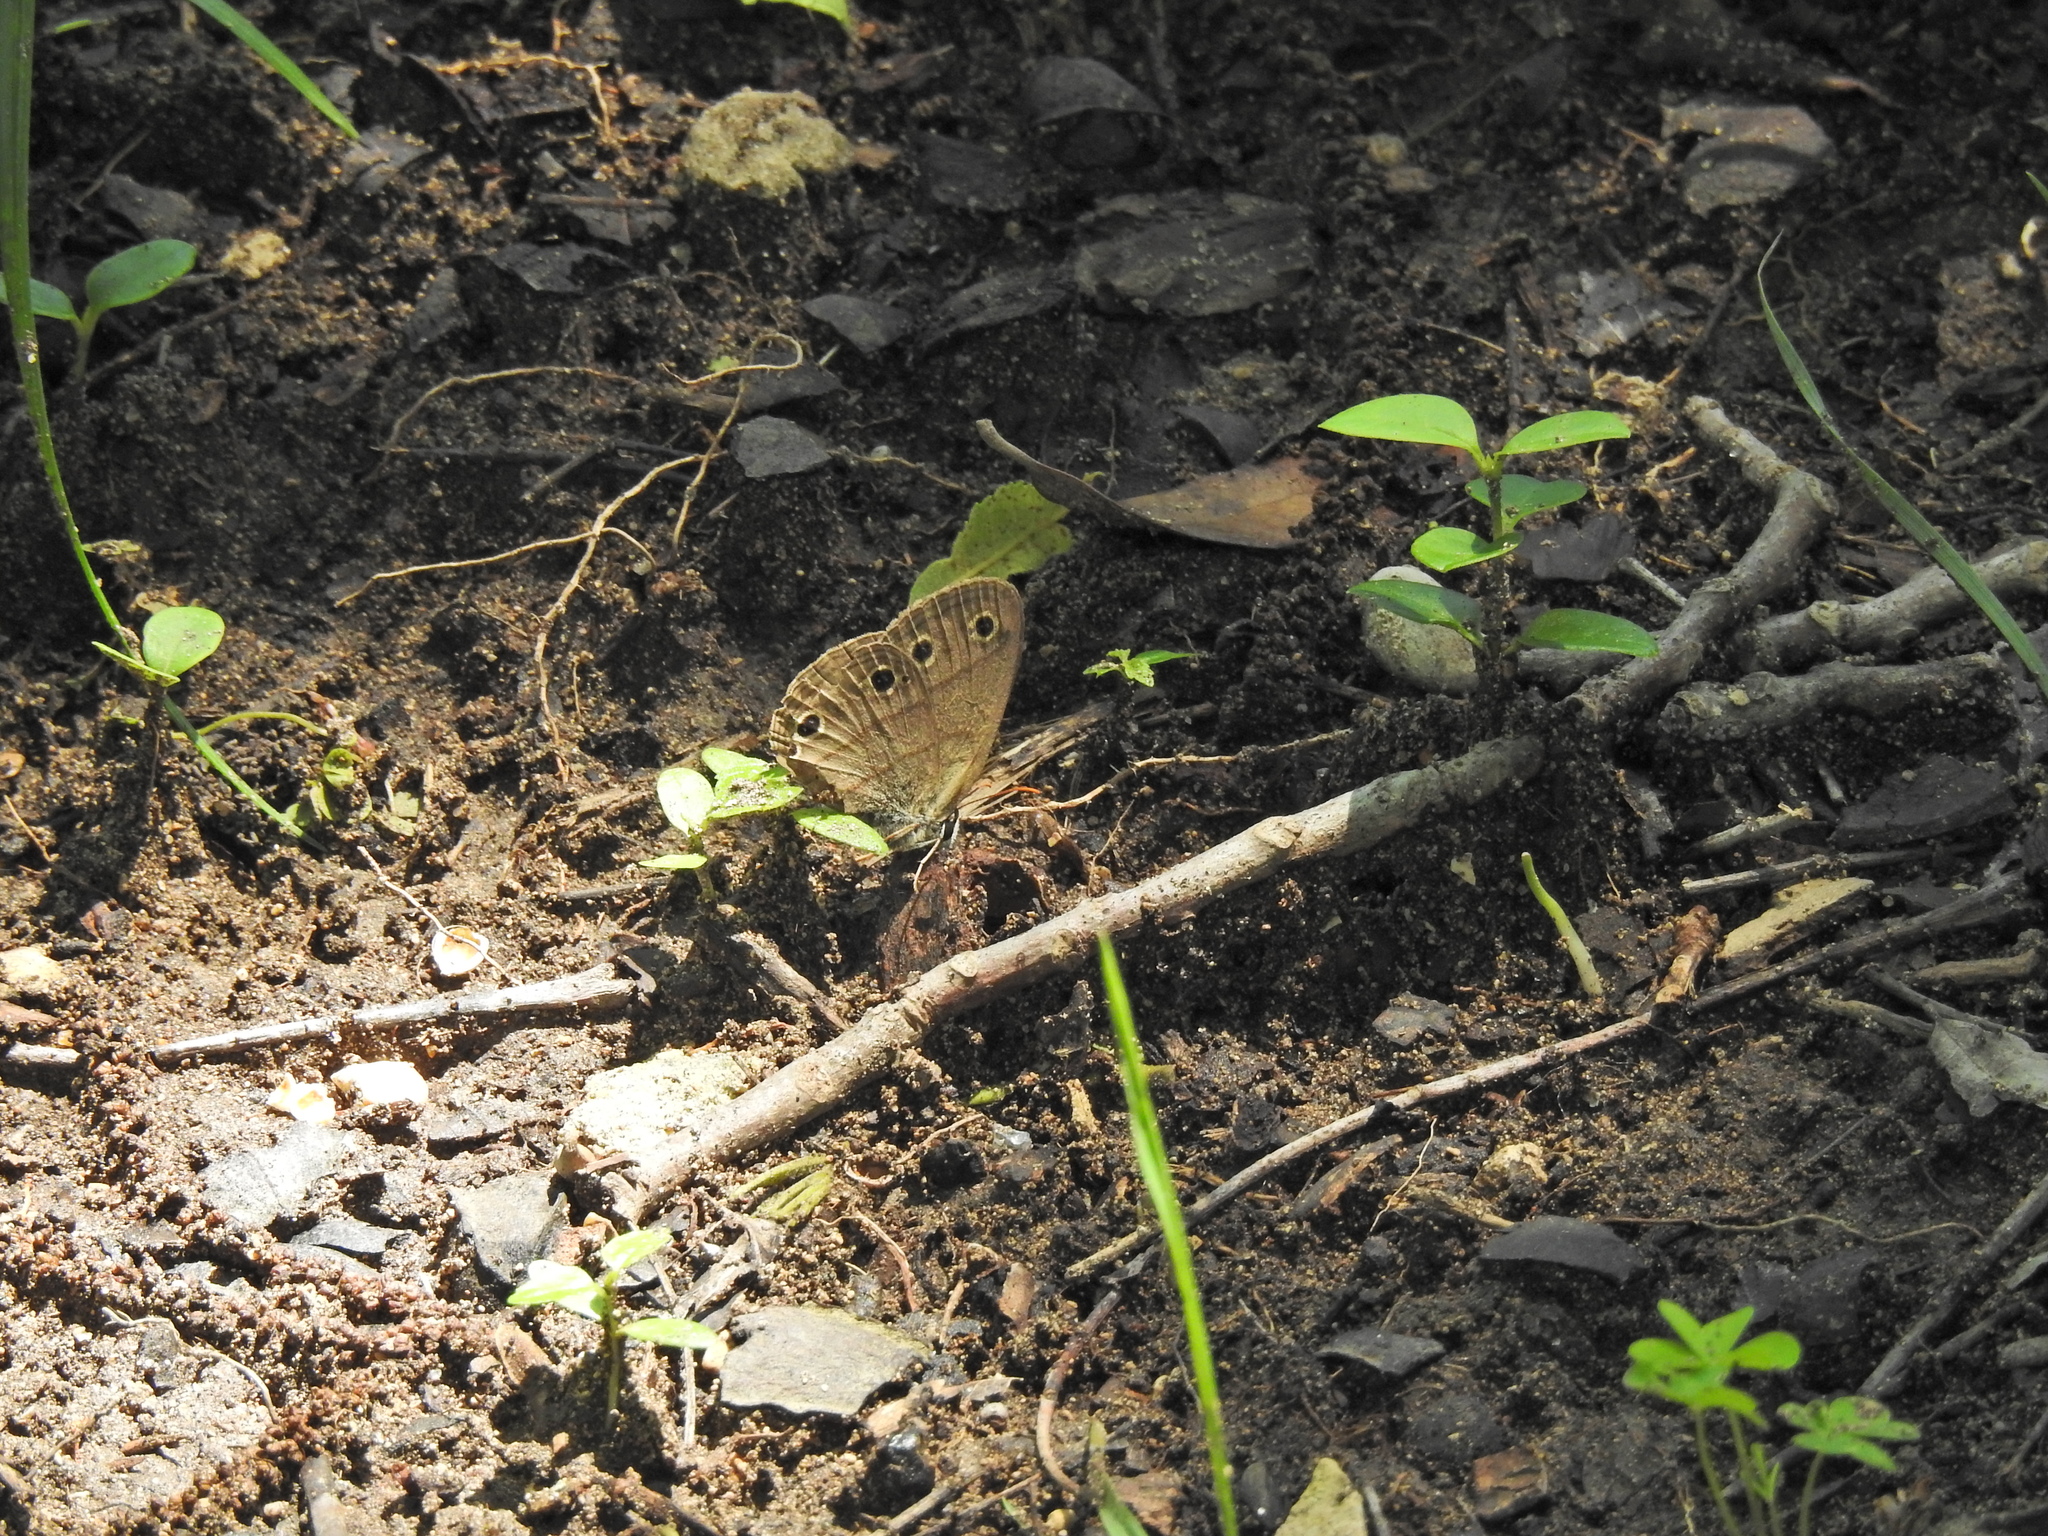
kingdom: Animalia
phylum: Arthropoda
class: Insecta
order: Lepidoptera
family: Nymphalidae
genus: Euptychia
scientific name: Euptychia cymela
